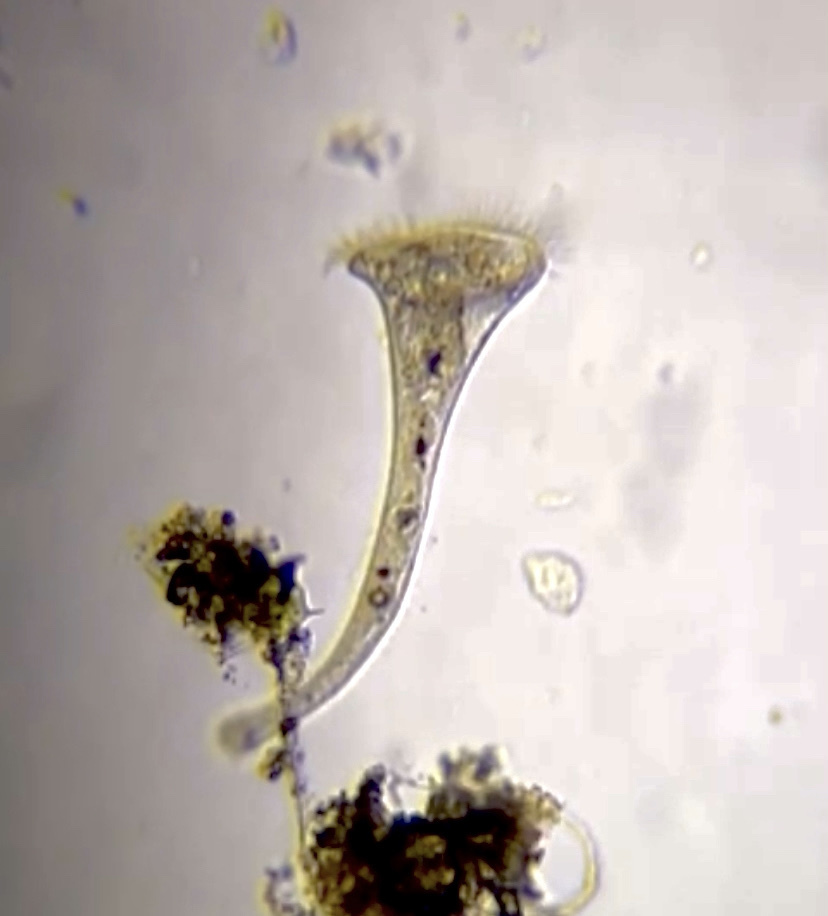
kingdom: Chromista
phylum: Ciliophora
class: Heterotrichea
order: Heterotrichida
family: Stentoridae
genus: Stentor
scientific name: Stentor
